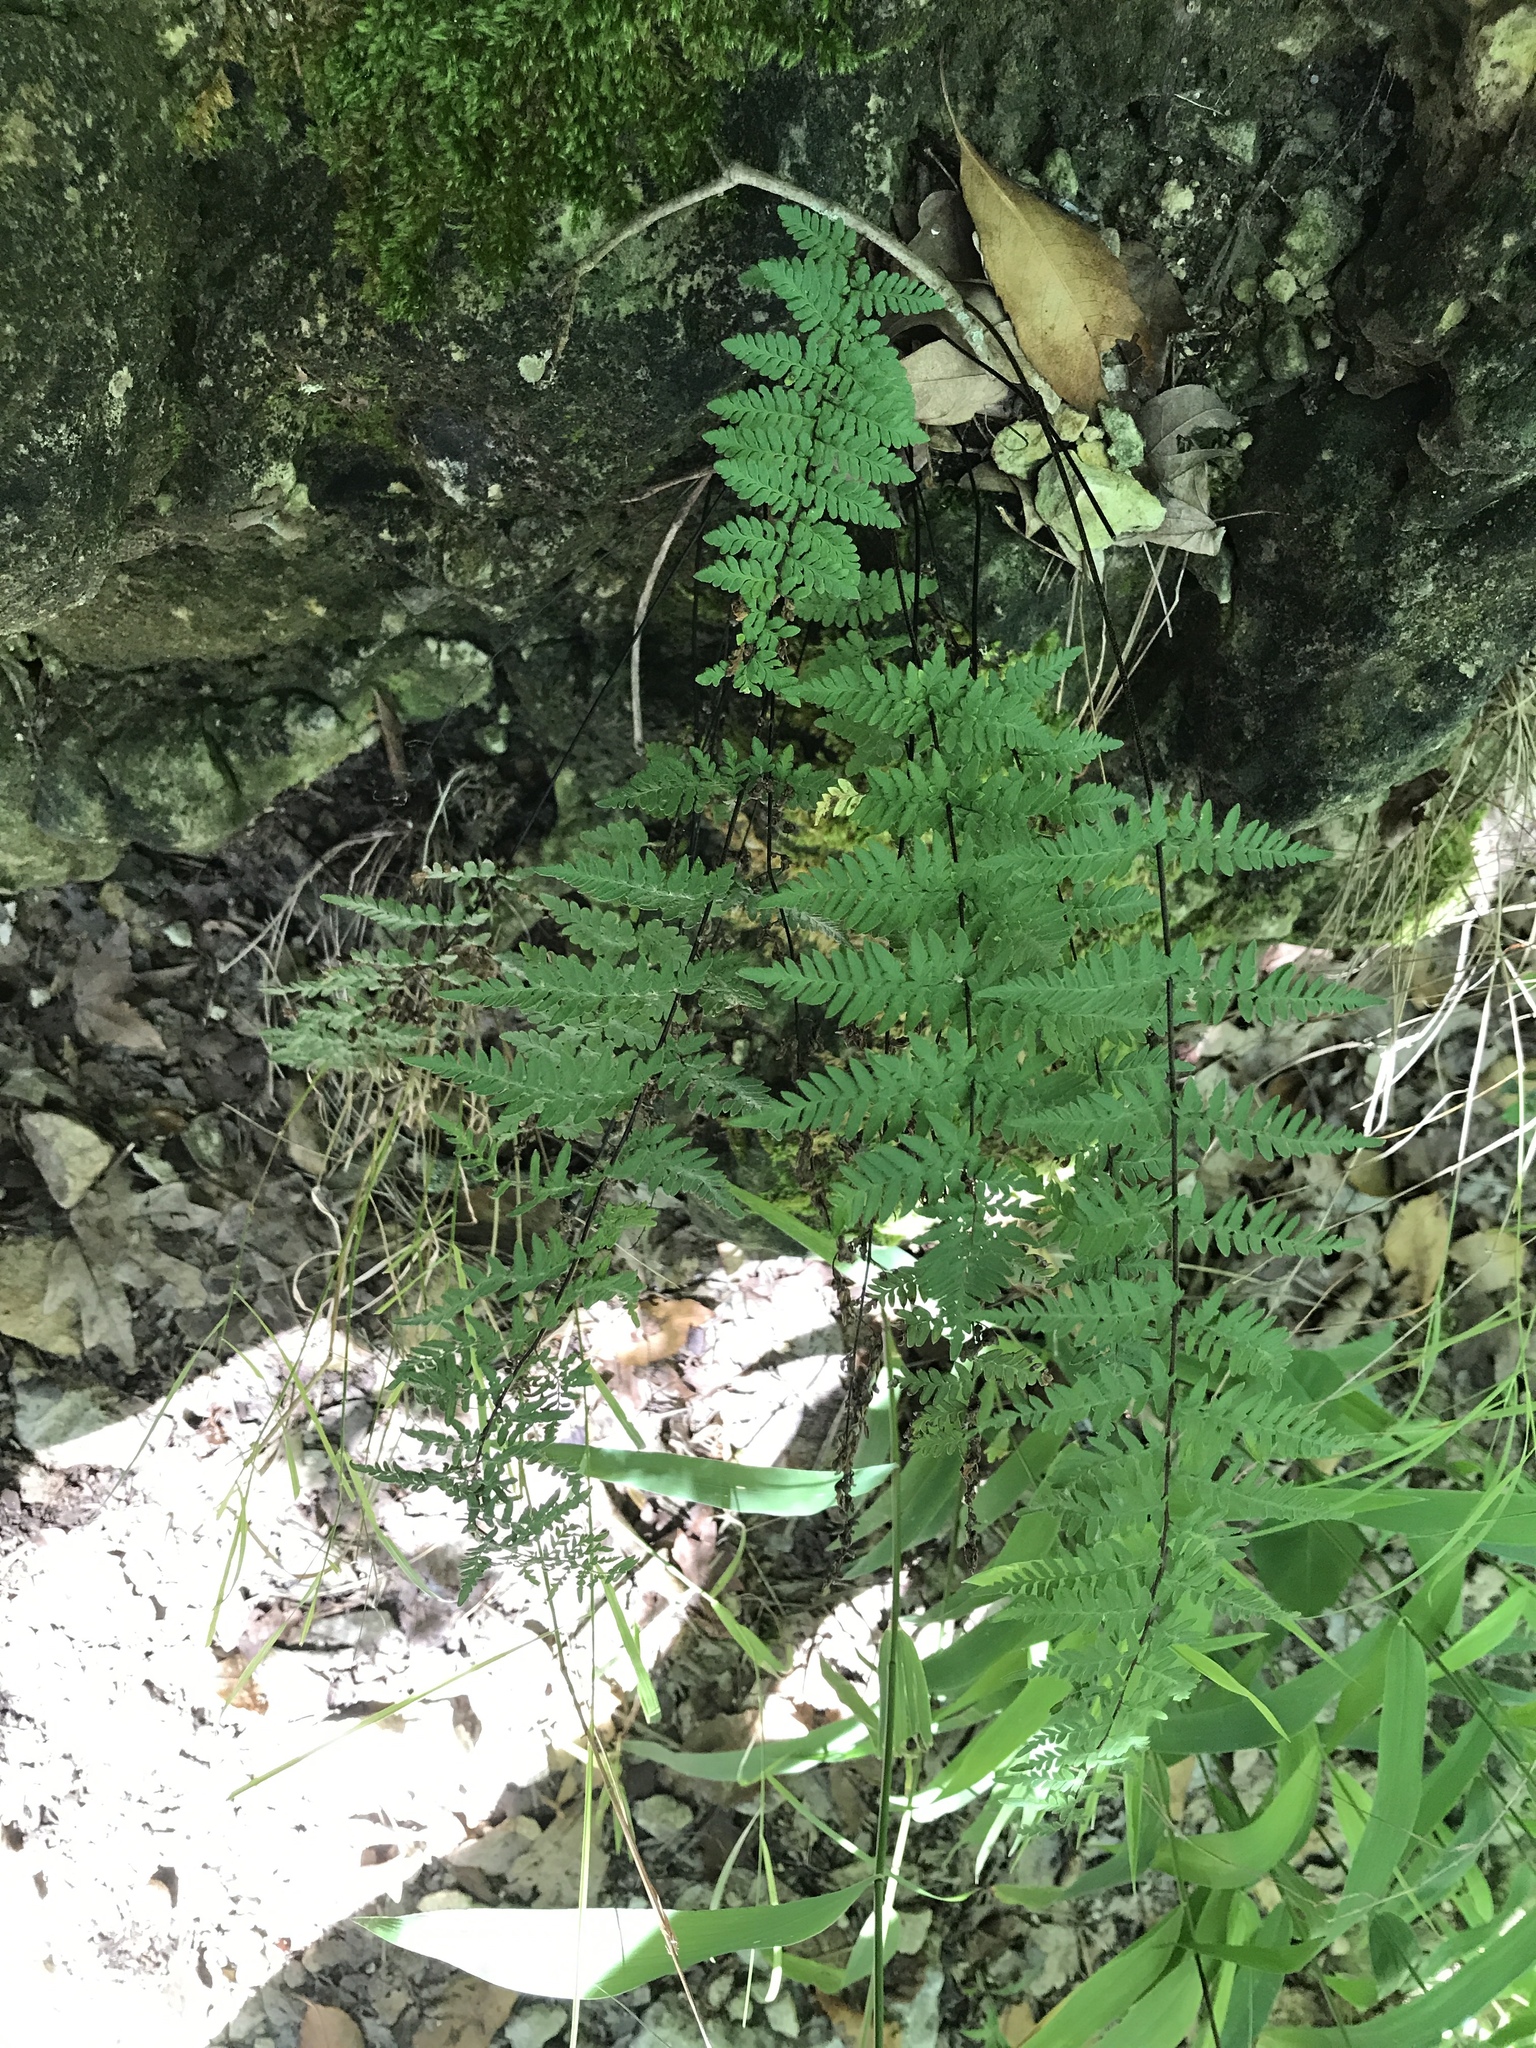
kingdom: Plantae
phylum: Tracheophyta
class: Polypodiopsida
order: Polypodiales
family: Pteridaceae
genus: Myriopteris
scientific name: Myriopteris alabamensis
